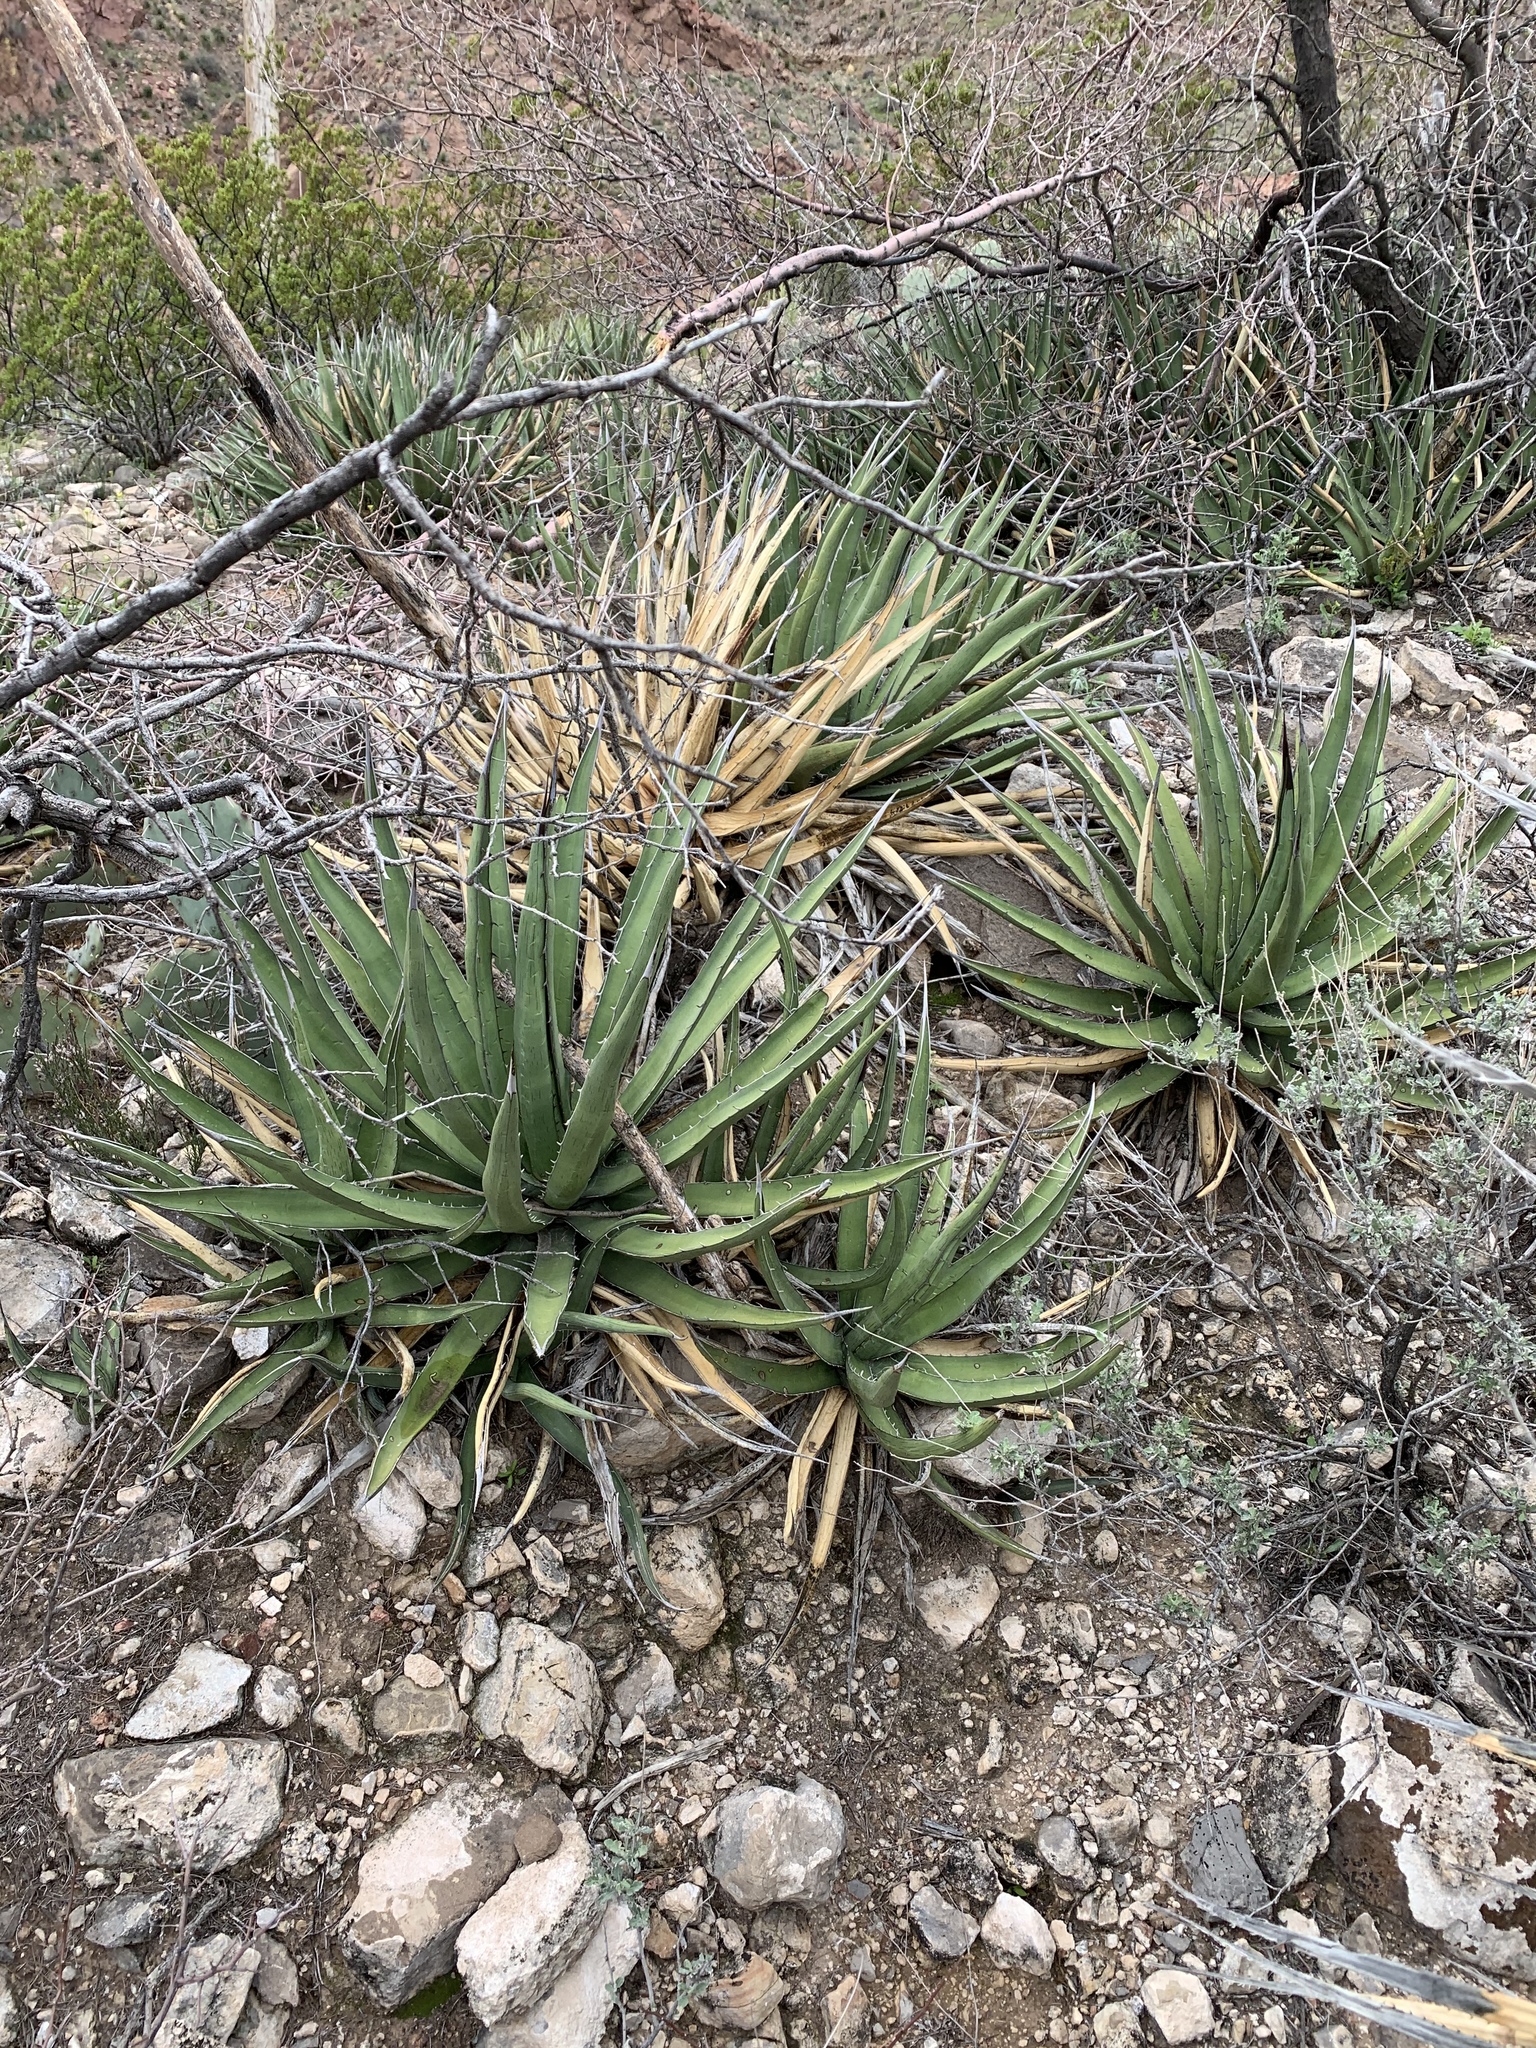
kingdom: Plantae
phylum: Tracheophyta
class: Liliopsida
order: Asparagales
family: Asparagaceae
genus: Agave
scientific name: Agave lechuguilla
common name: Lecheguilla agave
